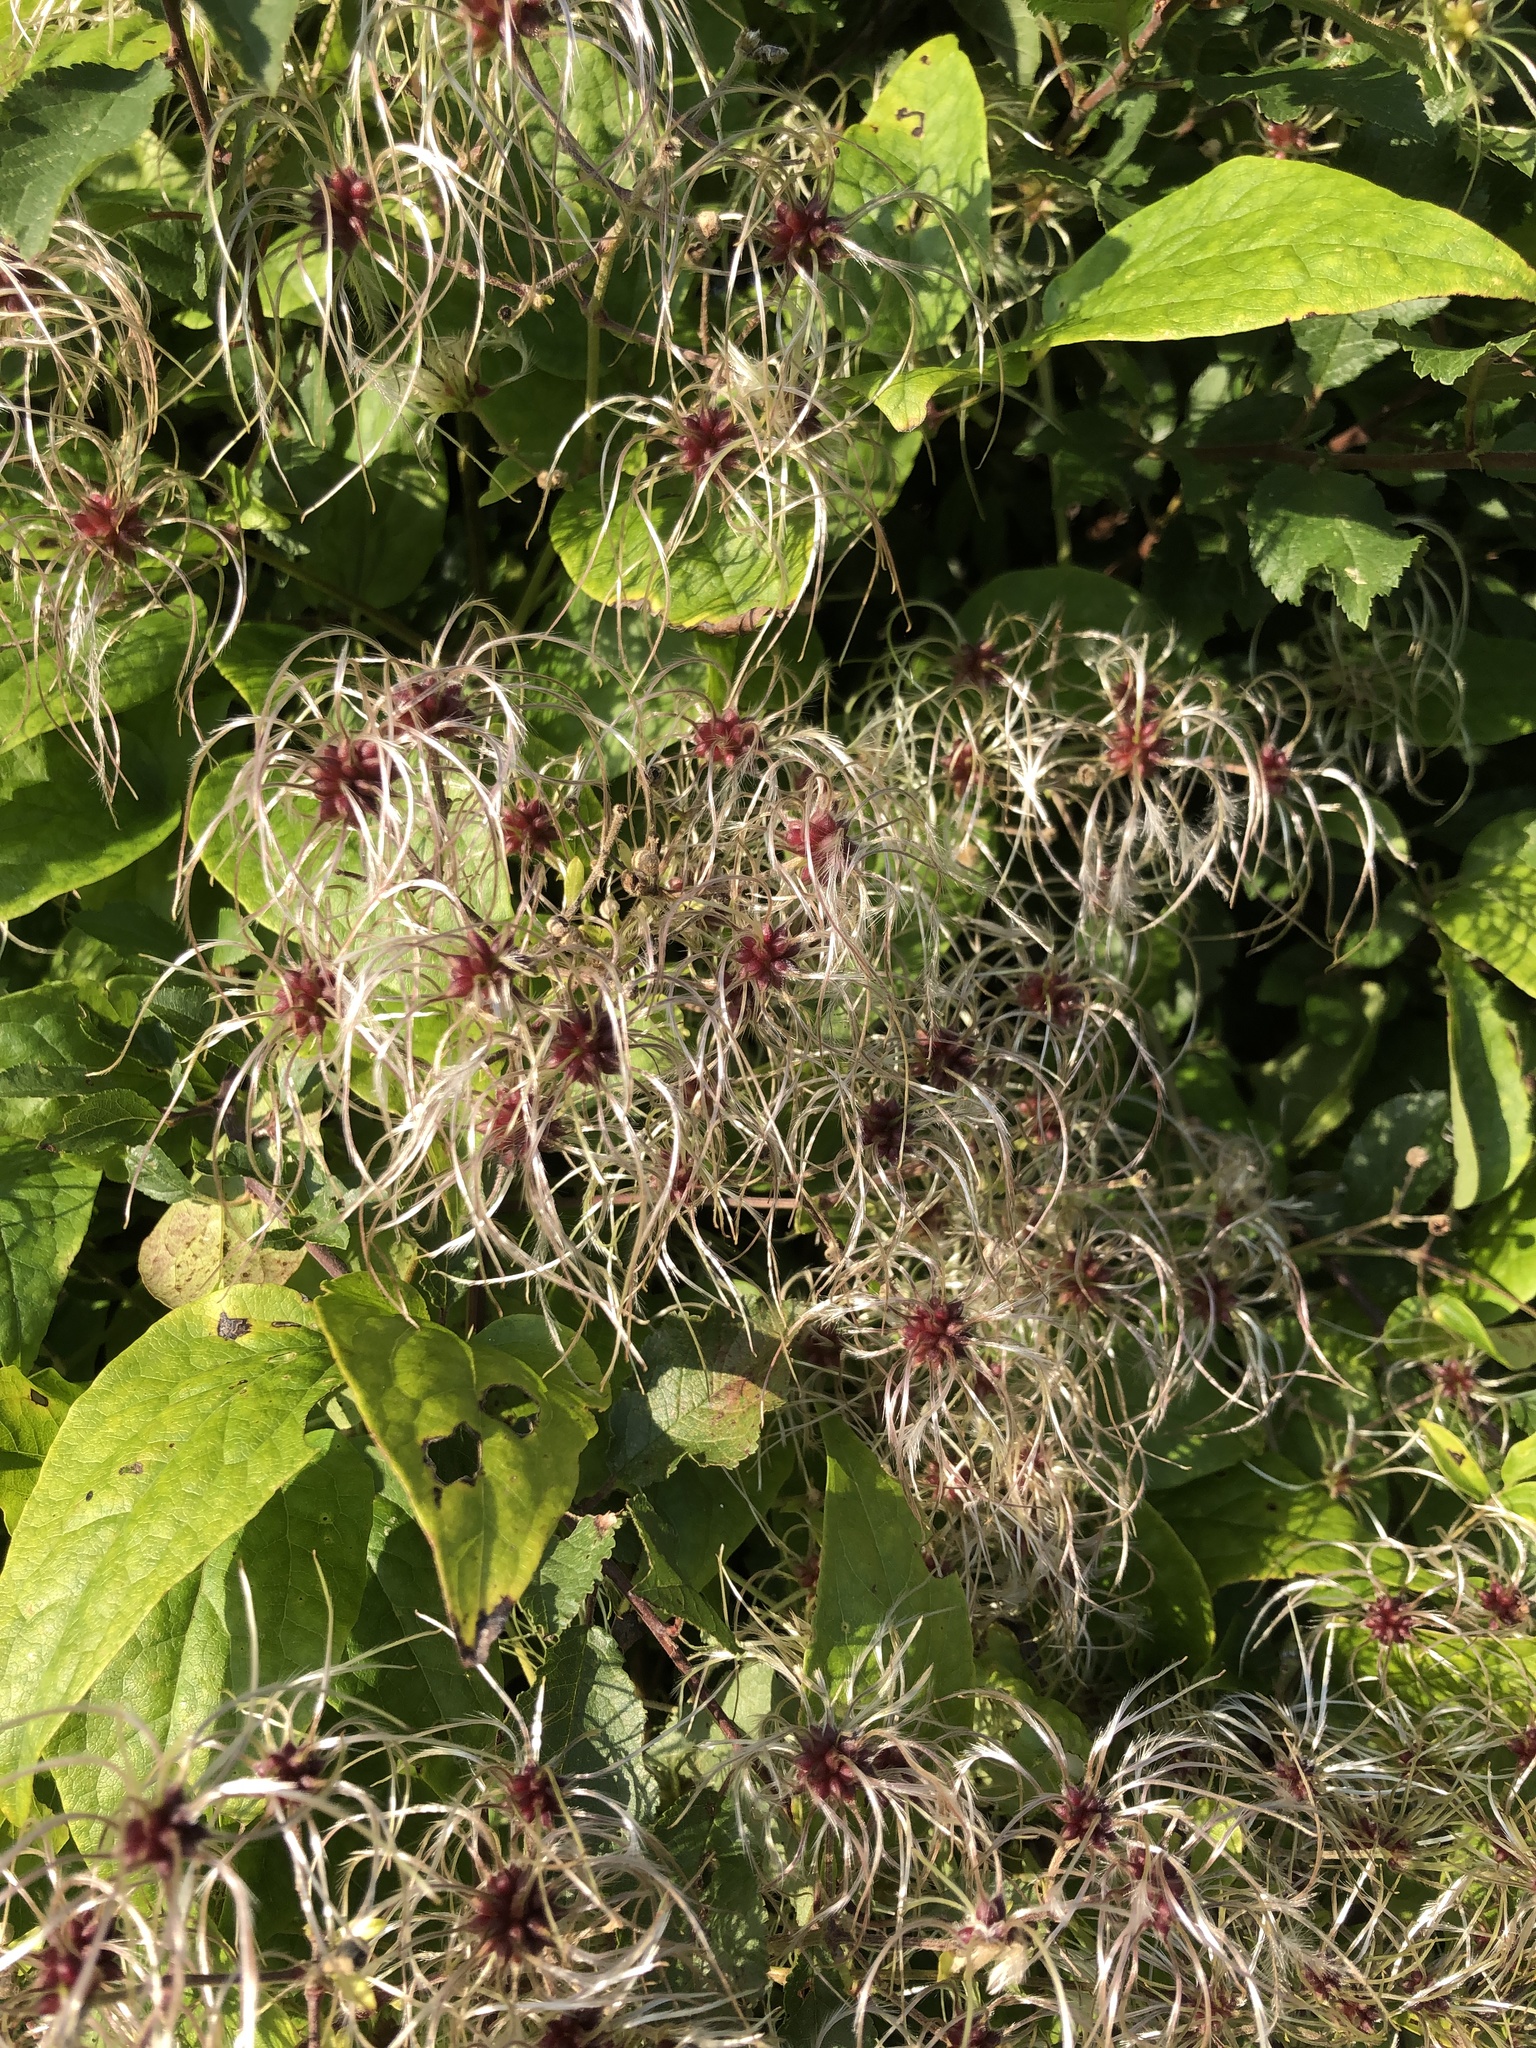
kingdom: Plantae
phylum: Tracheophyta
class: Magnoliopsida
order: Ranunculales
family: Ranunculaceae
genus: Clematis
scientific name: Clematis vitalba
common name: Evergreen clematis
